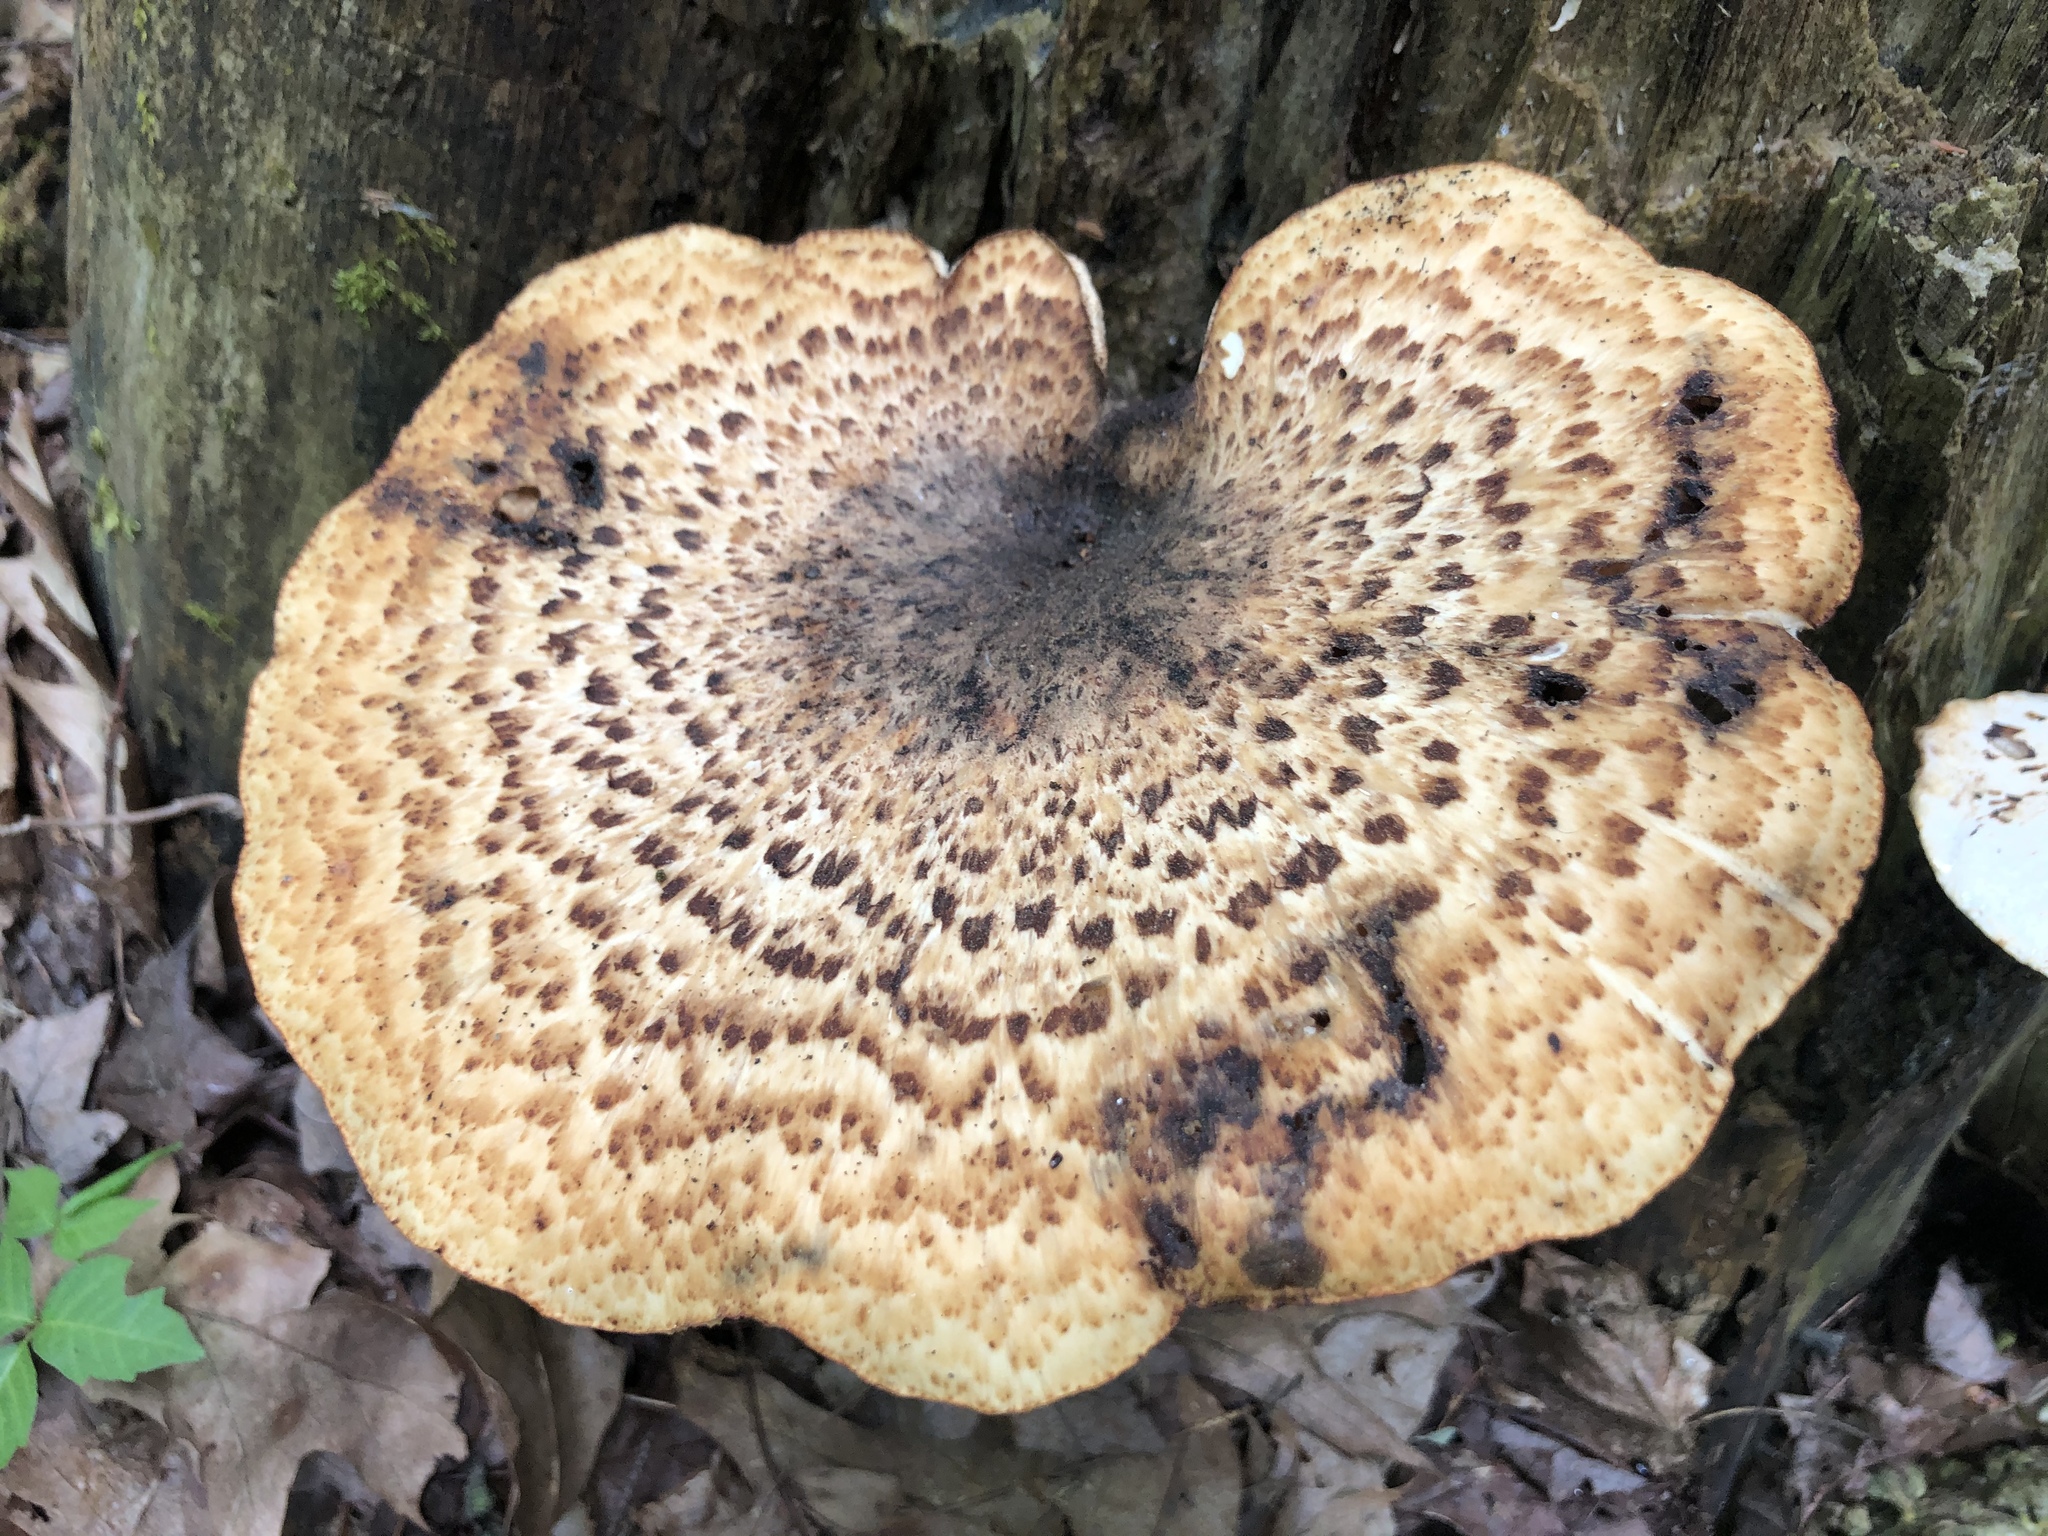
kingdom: Fungi
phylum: Basidiomycota
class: Agaricomycetes
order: Polyporales
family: Polyporaceae
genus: Cerioporus
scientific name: Cerioporus squamosus
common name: Dryad's saddle
